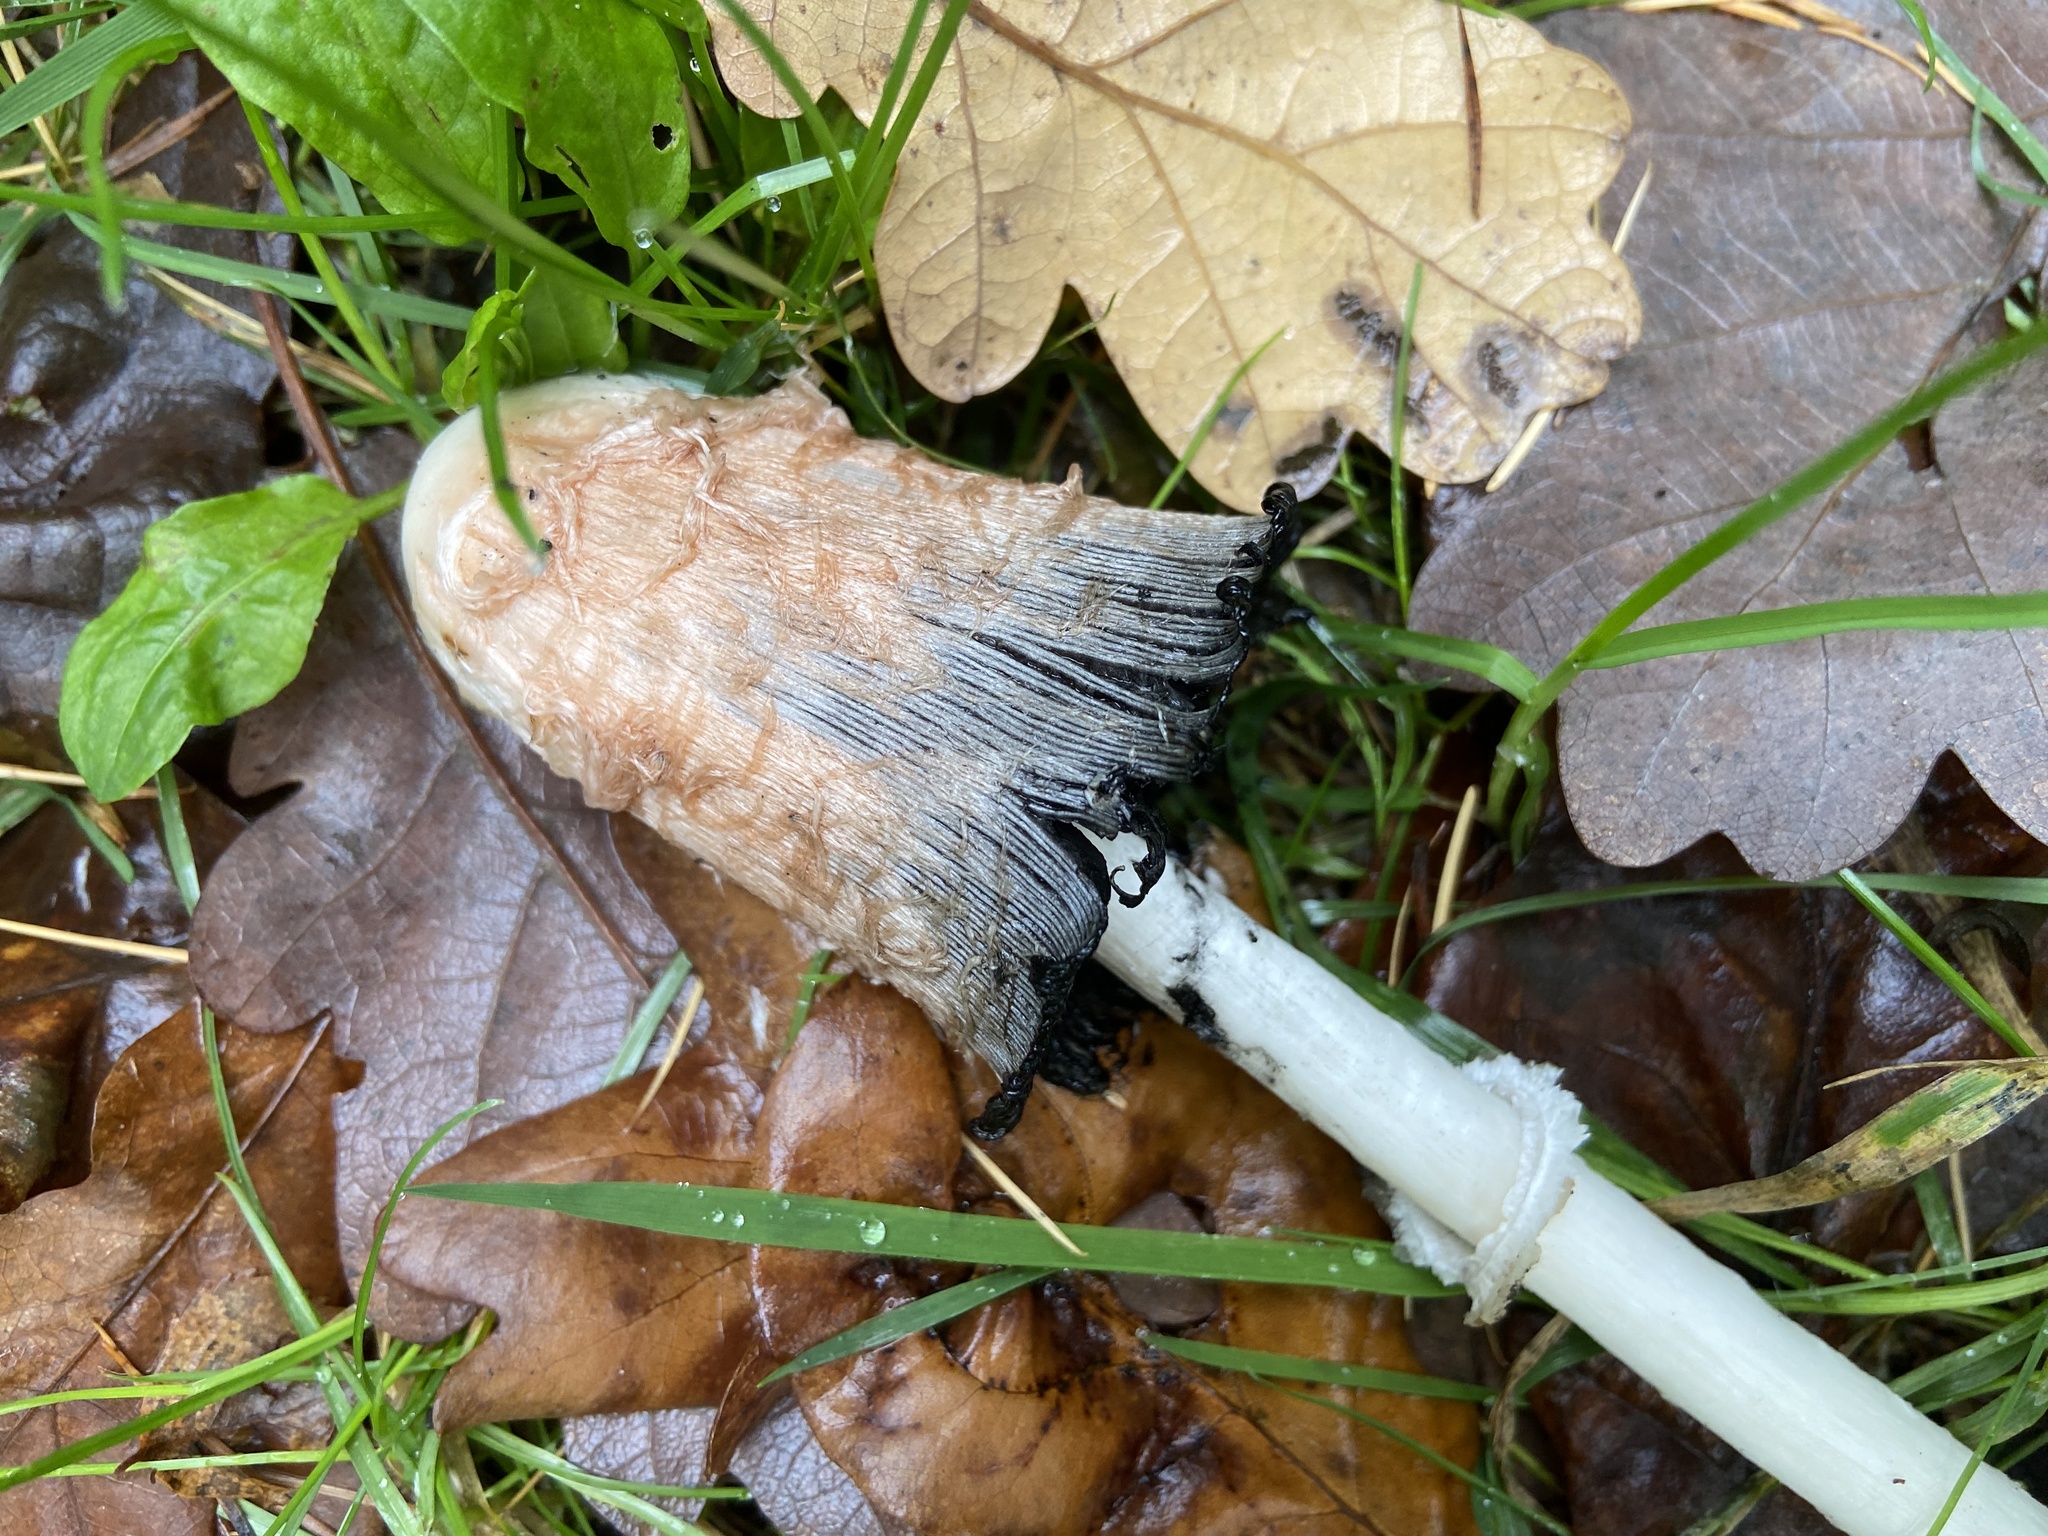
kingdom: Fungi
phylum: Basidiomycota
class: Agaricomycetes
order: Agaricales
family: Agaricaceae
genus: Coprinus
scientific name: Coprinus comatus
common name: Lawyer's wig
